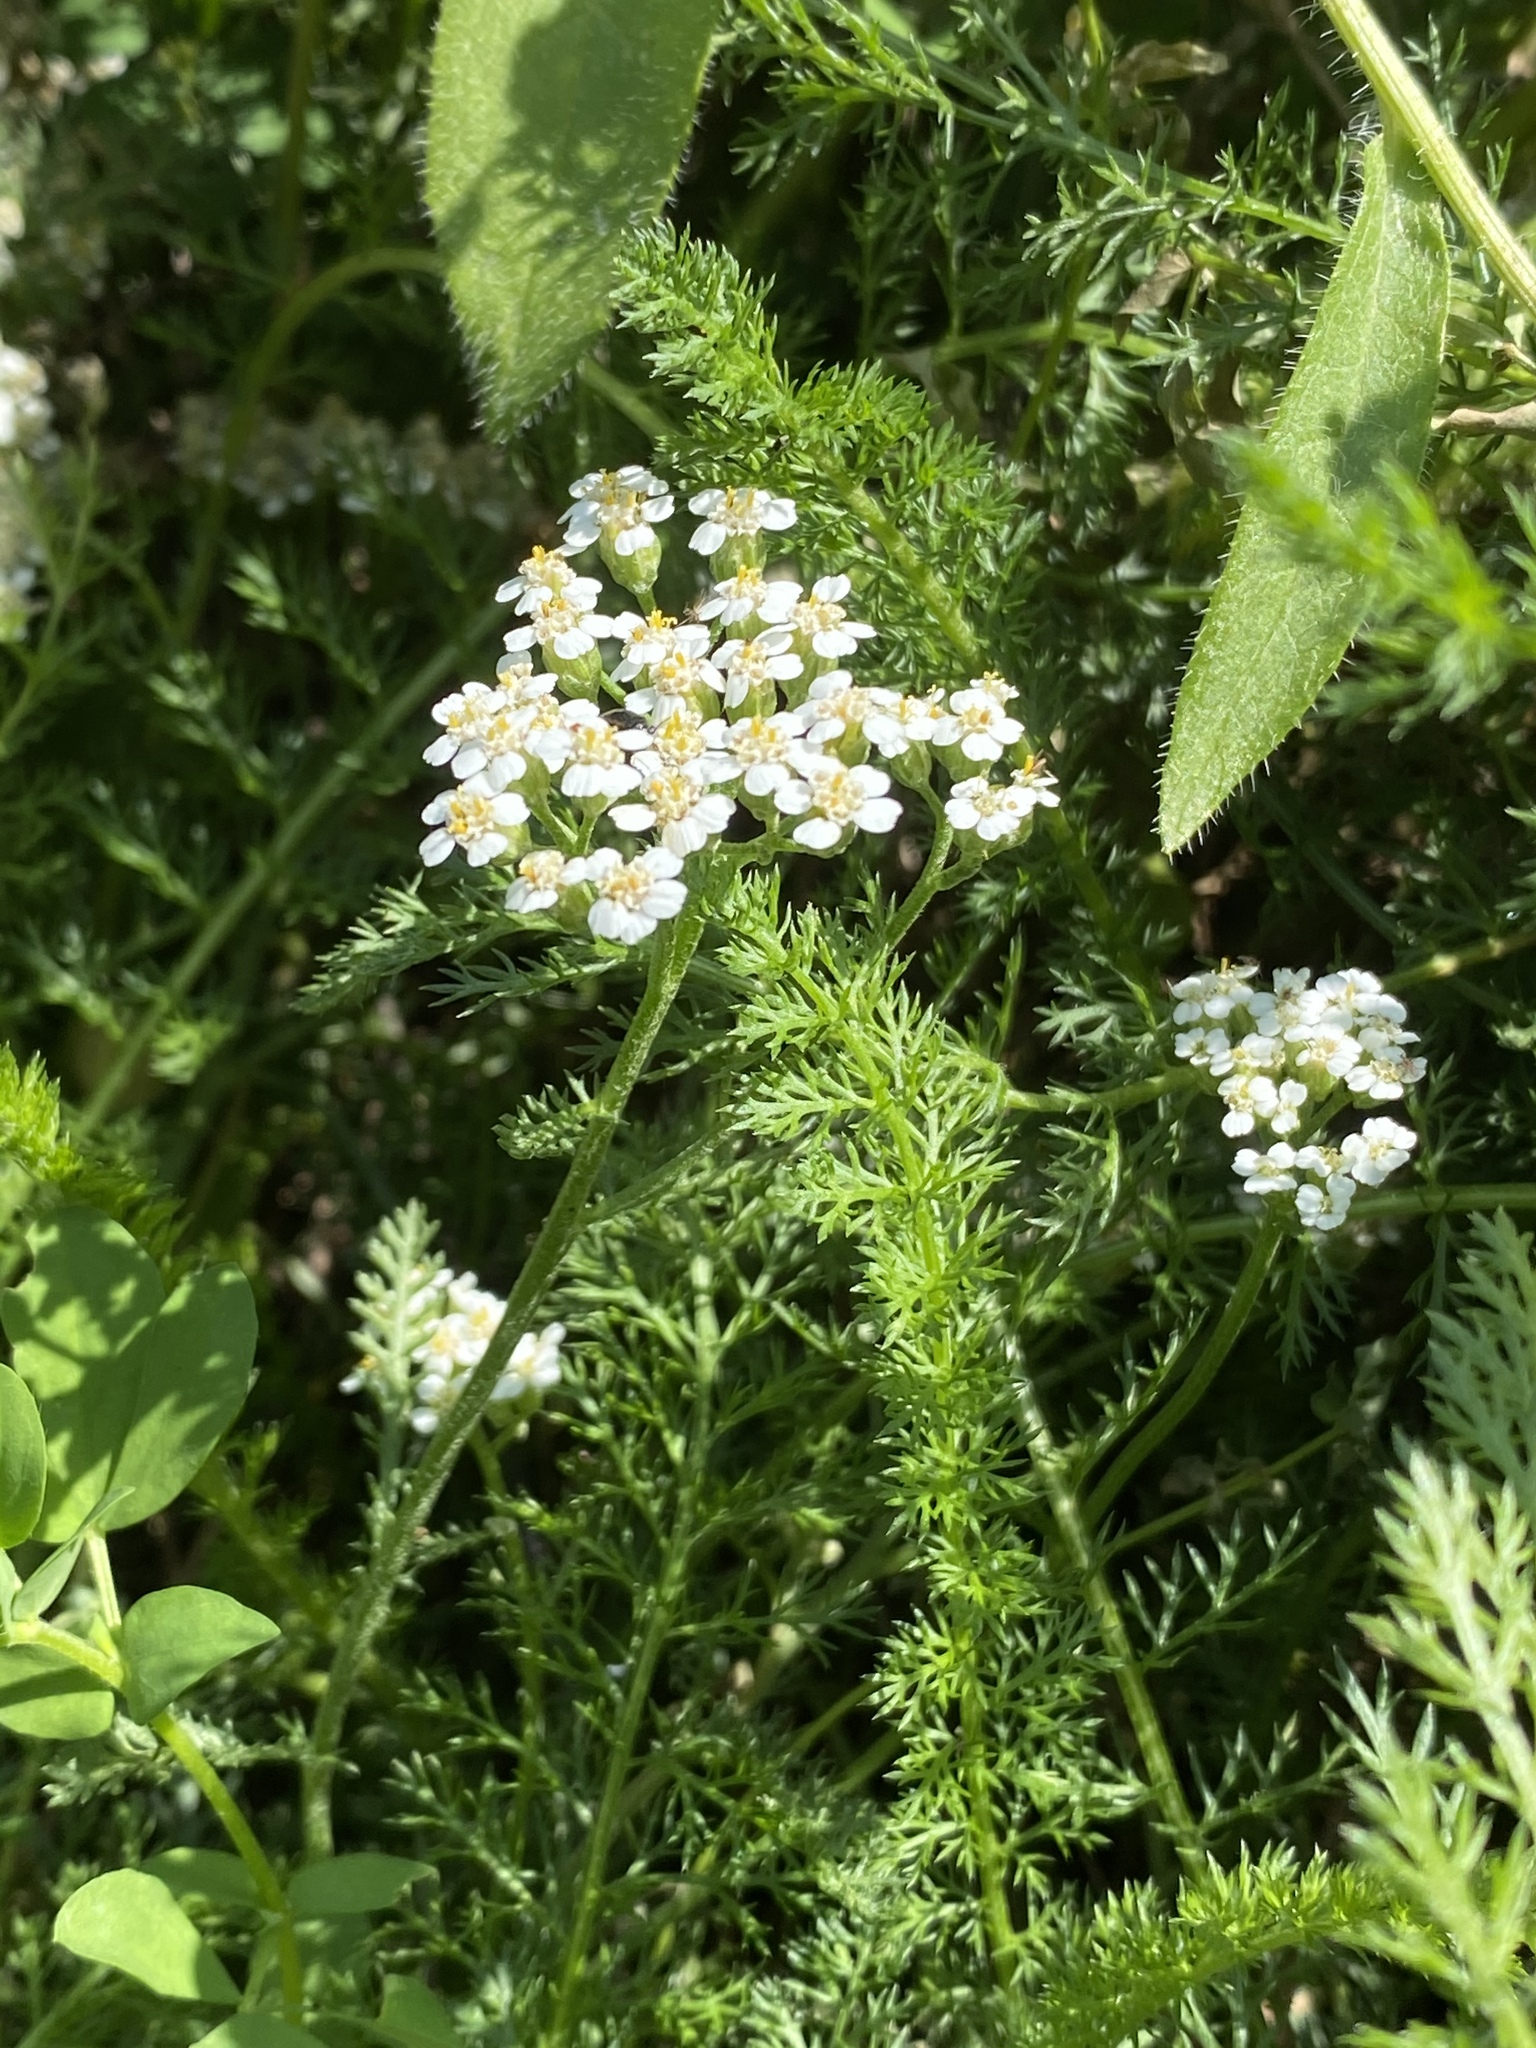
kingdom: Plantae
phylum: Tracheophyta
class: Magnoliopsida
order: Asterales
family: Asteraceae
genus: Achillea
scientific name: Achillea millefolium
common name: Yarrow
